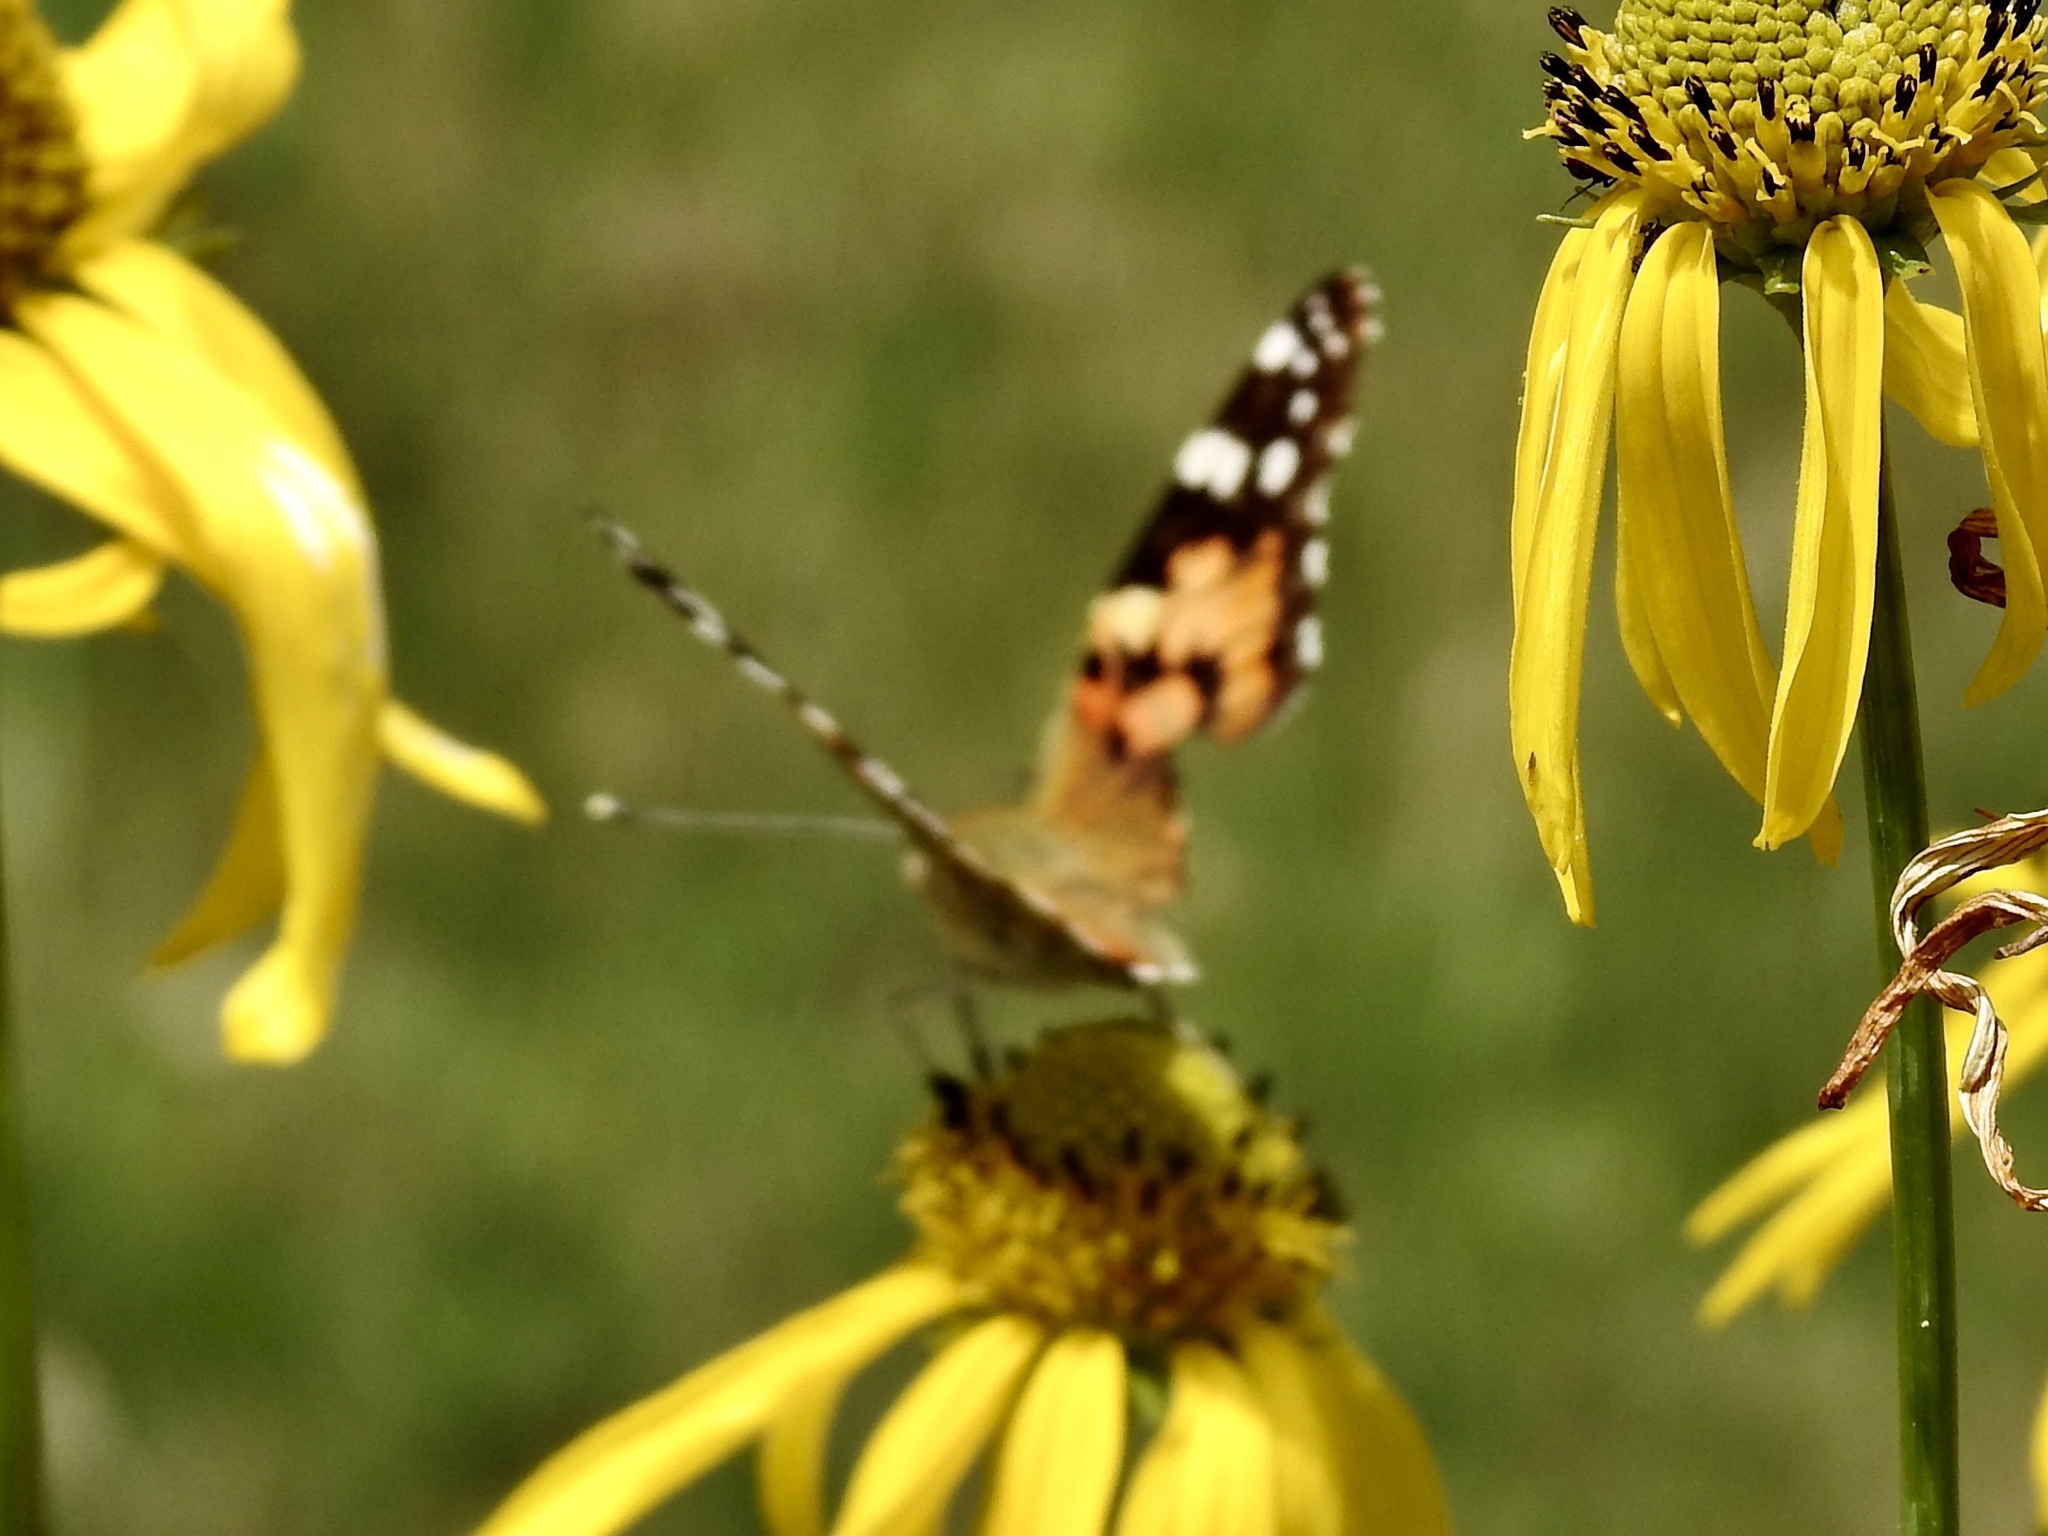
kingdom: Animalia
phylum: Arthropoda
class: Insecta
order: Lepidoptera
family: Nymphalidae
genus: Vanessa
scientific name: Vanessa cardui
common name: Painted lady
